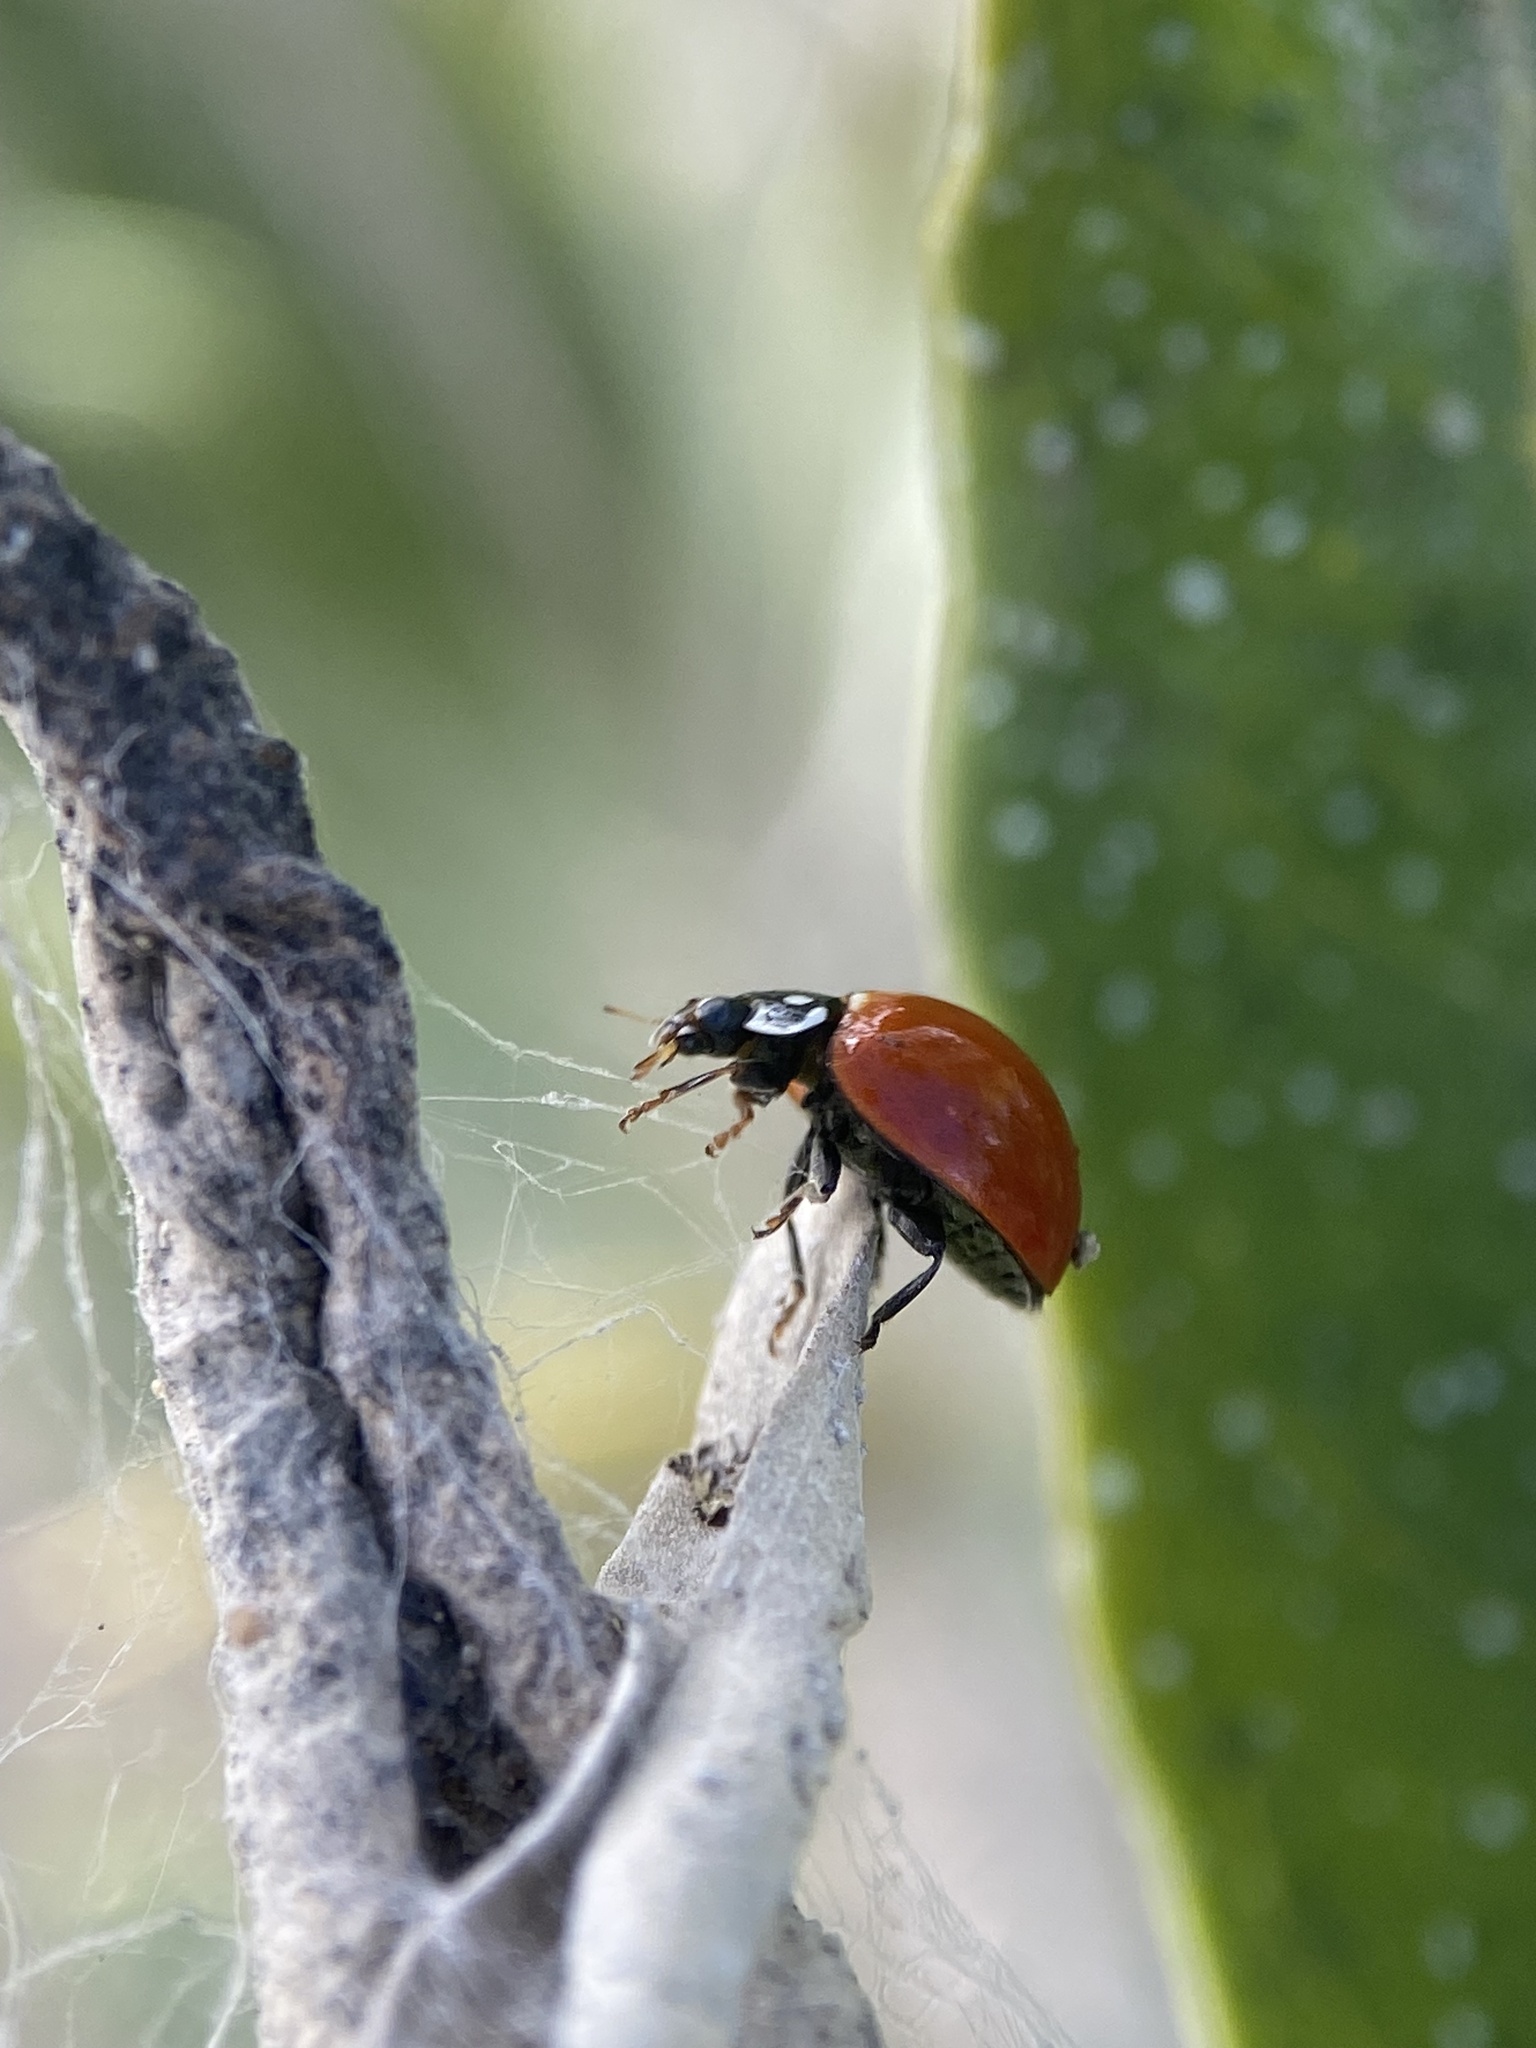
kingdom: Animalia
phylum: Arthropoda
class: Insecta
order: Coleoptera
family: Coccinellidae
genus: Cycloneda
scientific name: Cycloneda sanguinea
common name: Ladybird beetle
